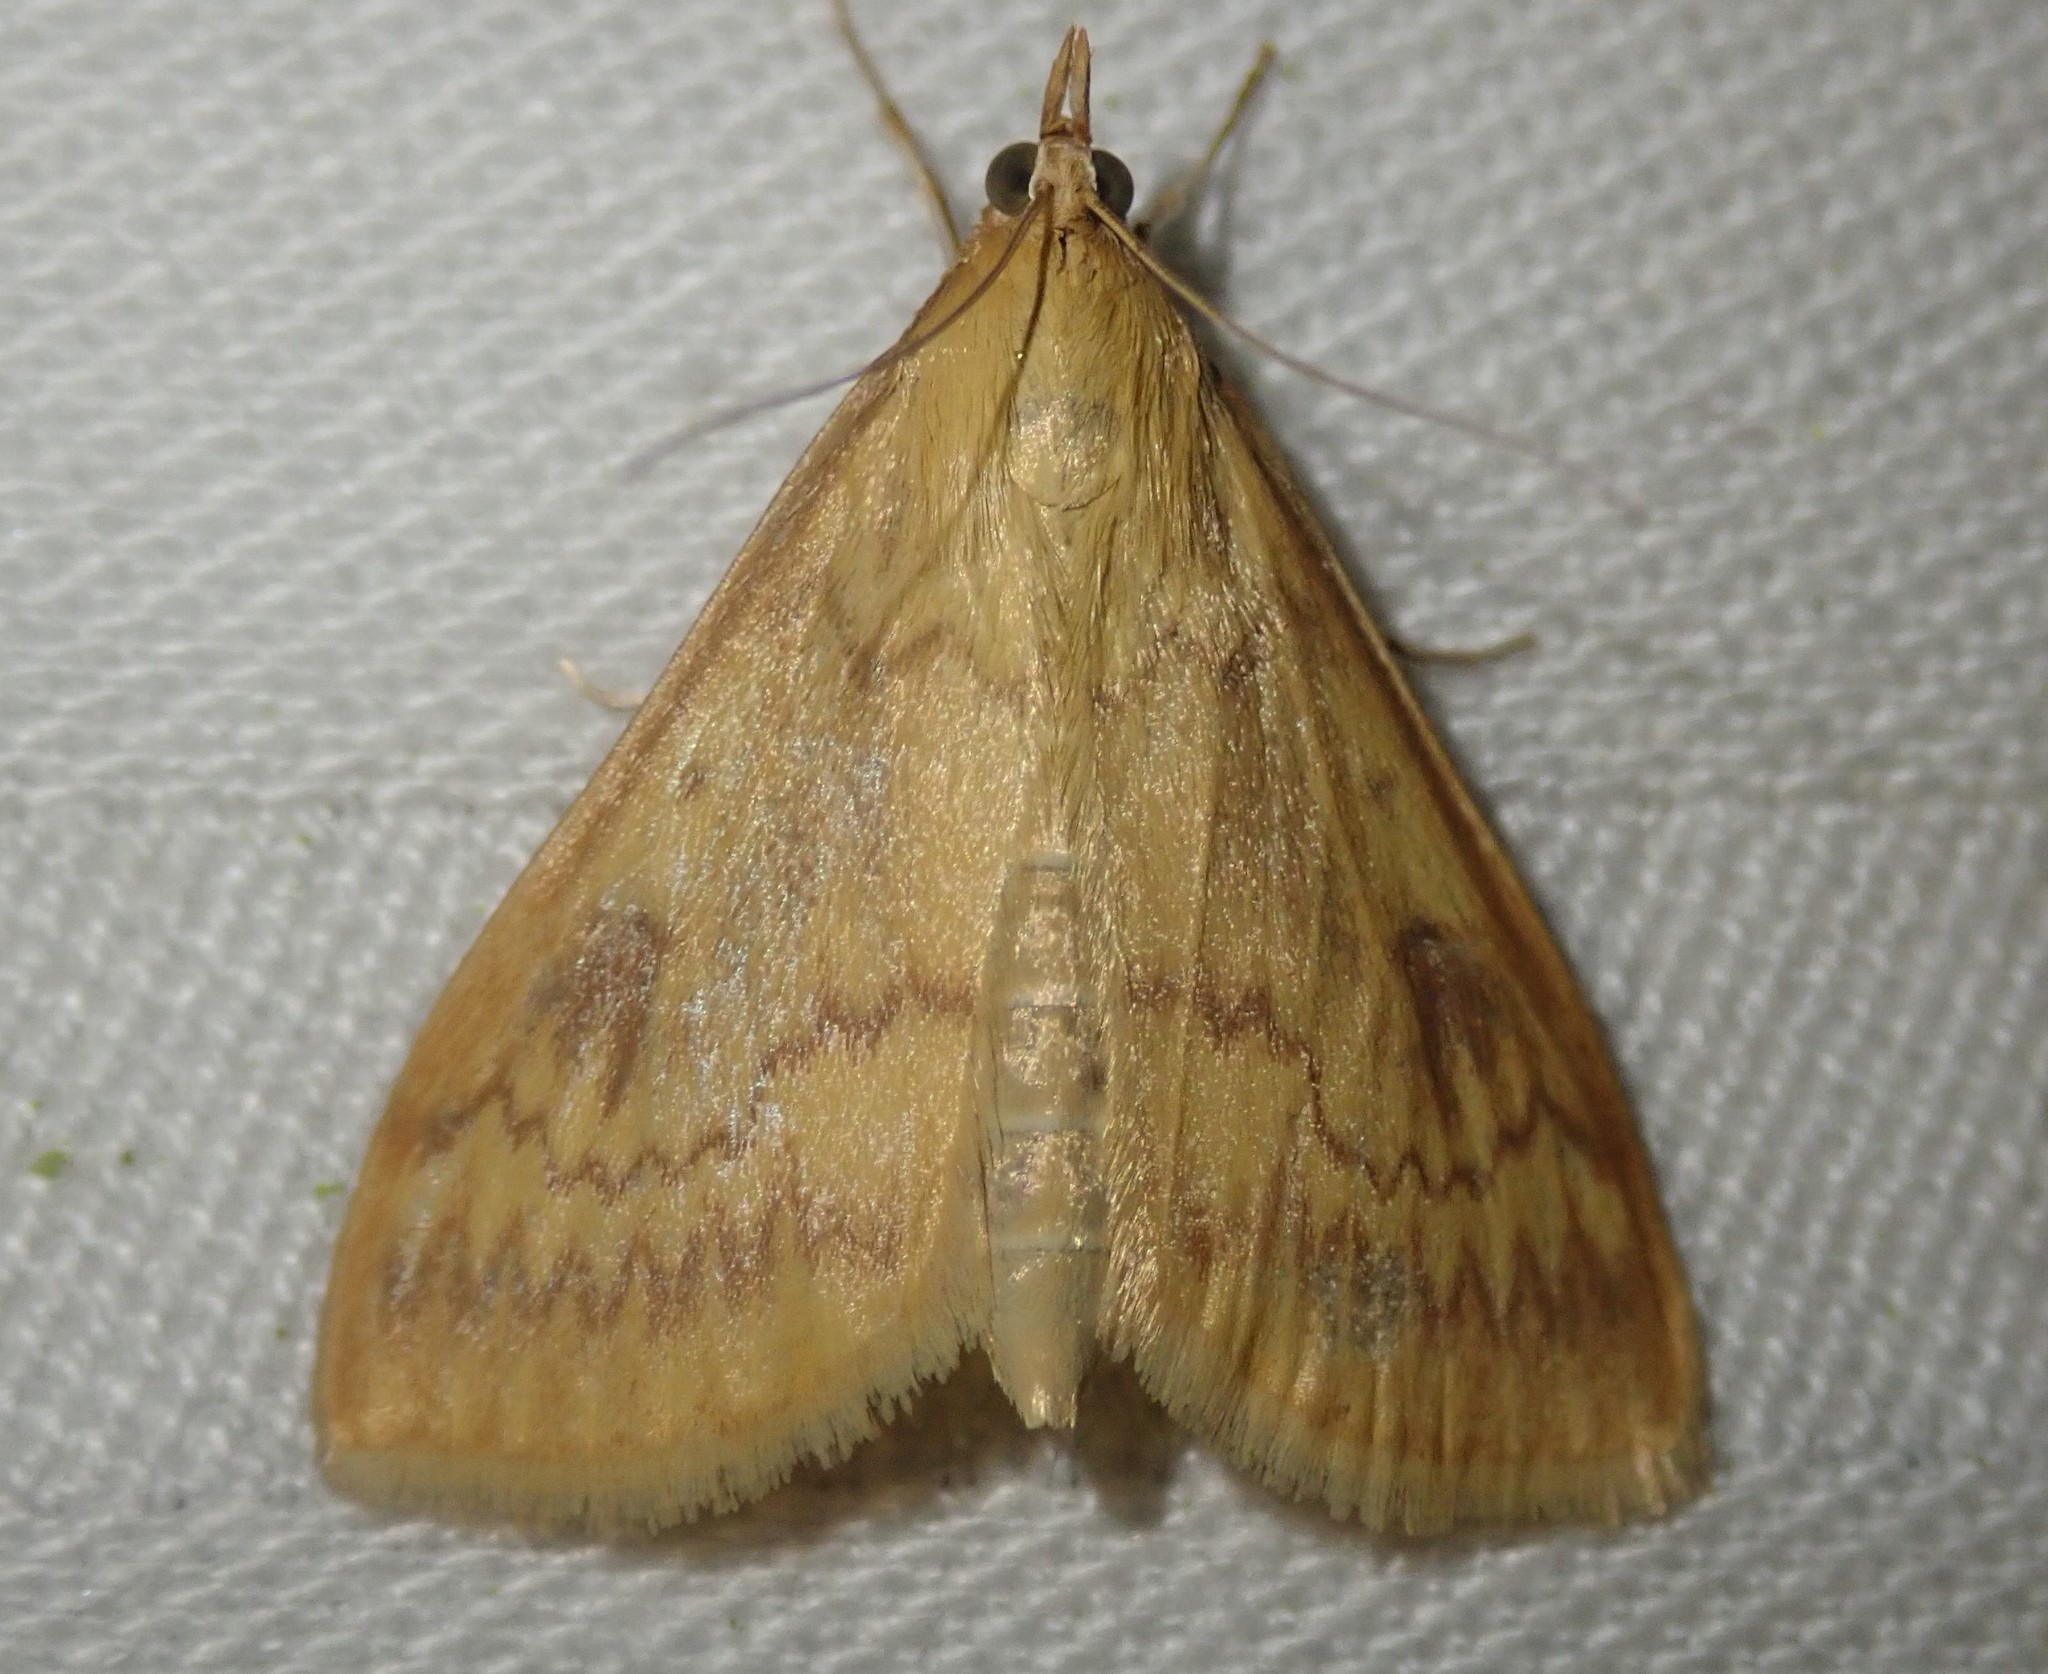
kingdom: Animalia
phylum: Arthropoda
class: Insecta
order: Lepidoptera
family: Crambidae
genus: Ostrinia
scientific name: Ostrinia nubilalis
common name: European corn borer
